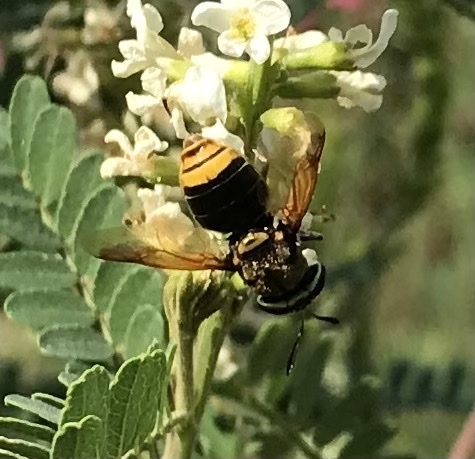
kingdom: Animalia
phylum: Arthropoda
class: Insecta
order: Diptera
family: Stratiomyidae
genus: Hoplitimyia
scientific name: Hoplitimyia mutabilis
